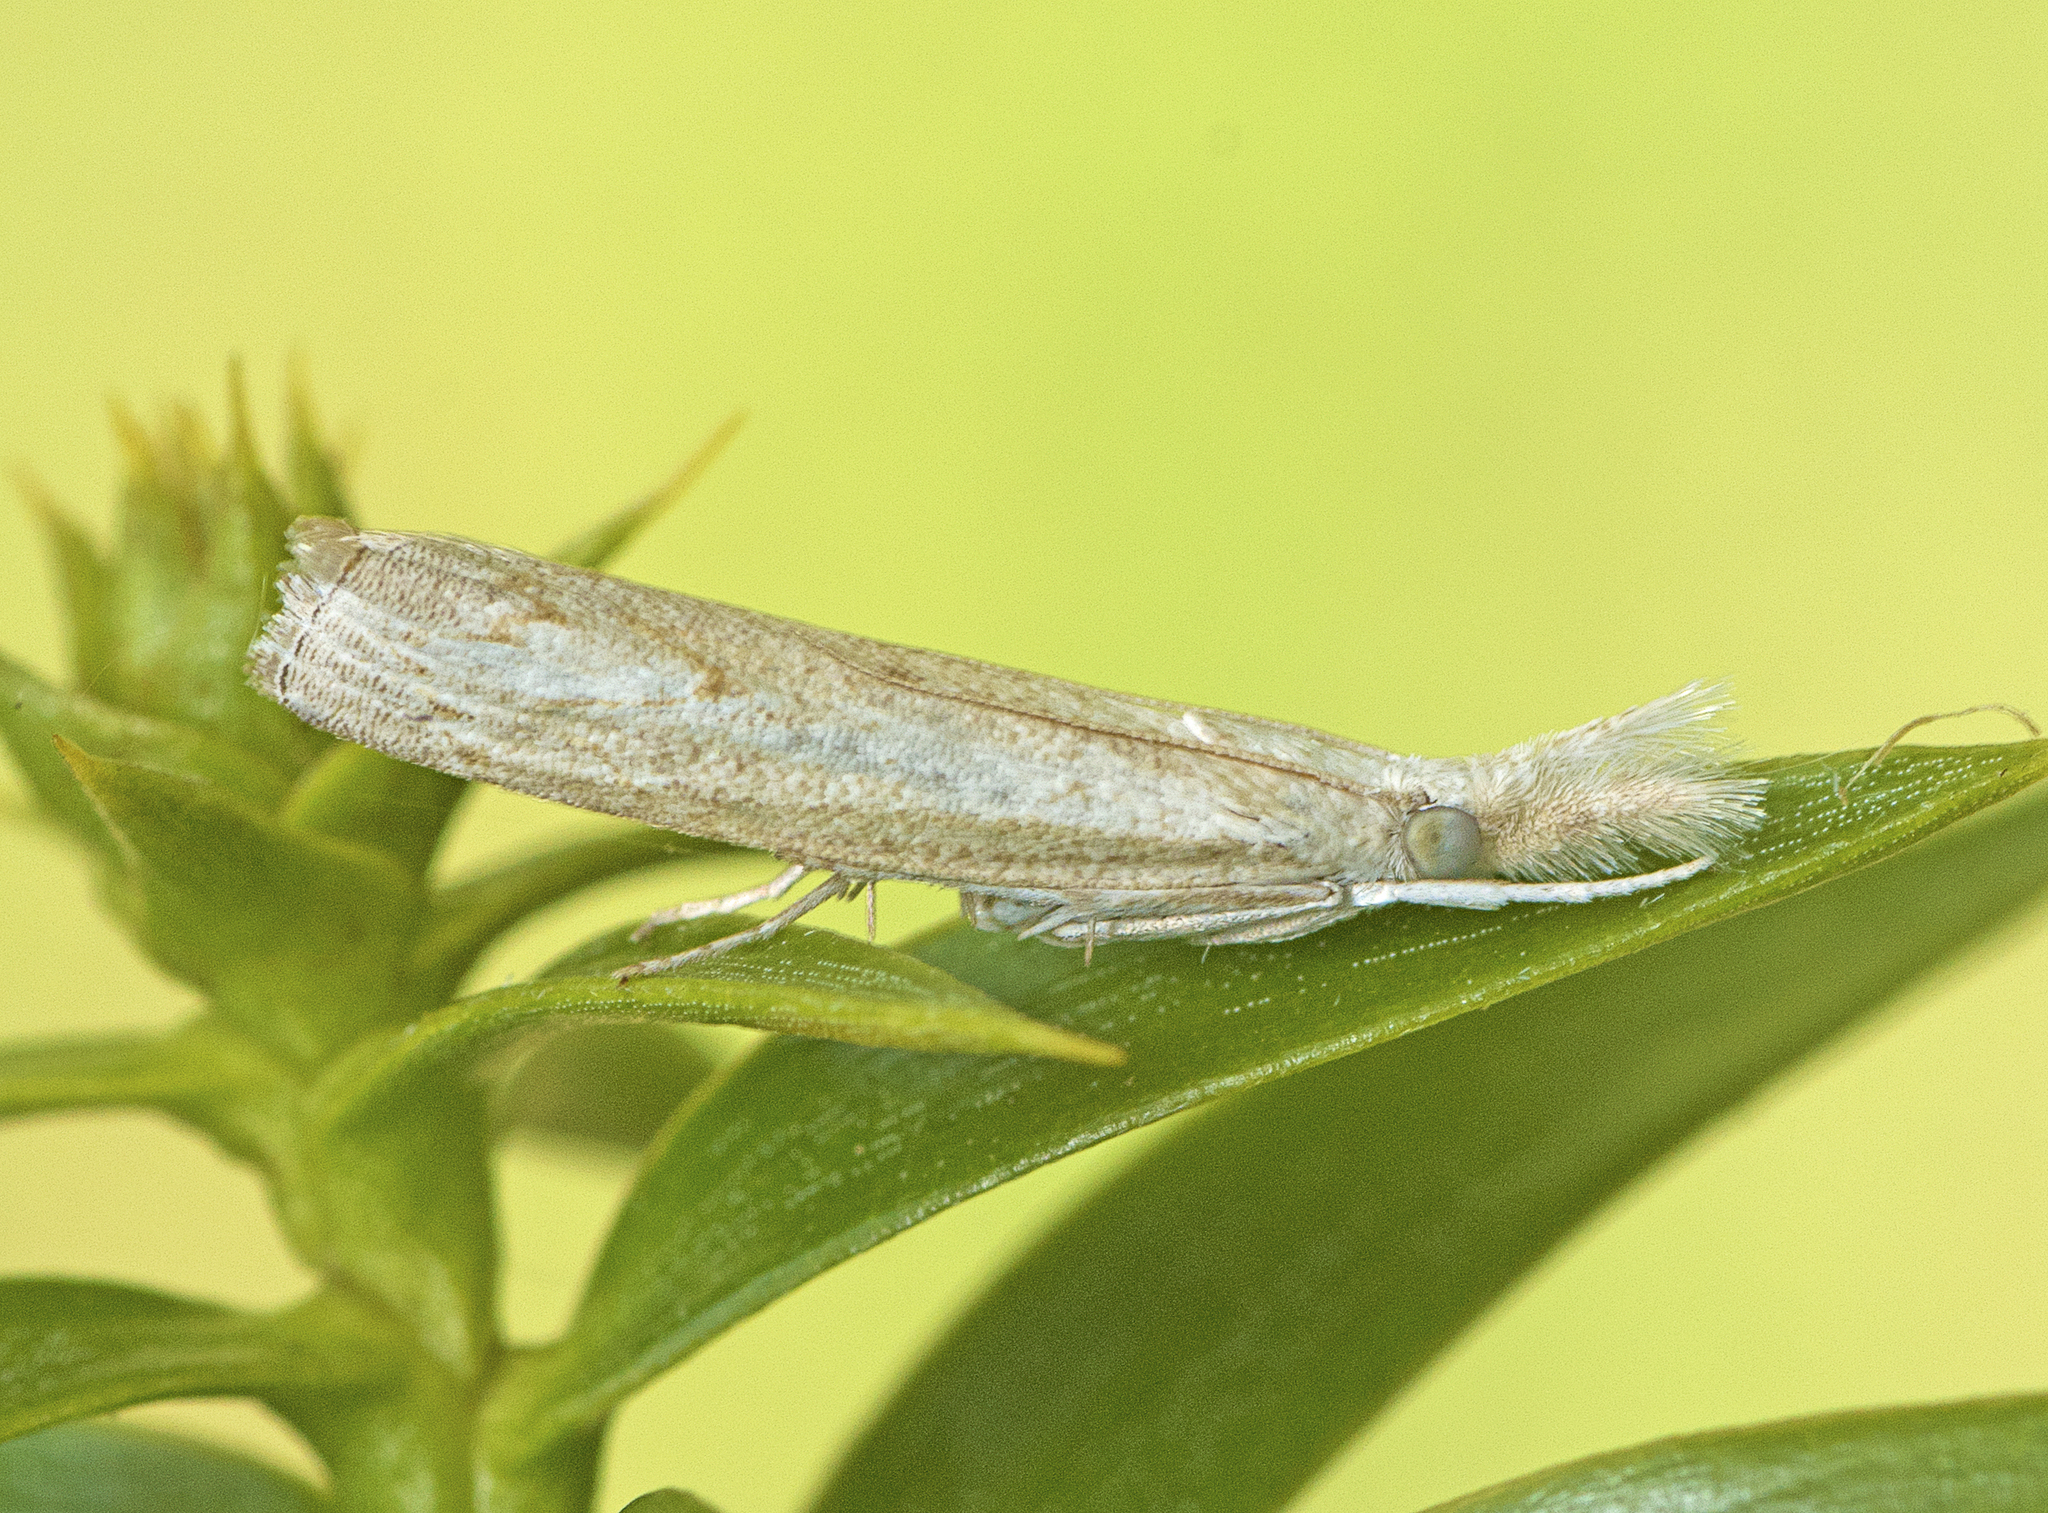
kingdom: Animalia
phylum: Arthropoda
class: Insecta
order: Lepidoptera
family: Crambidae
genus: Culladia
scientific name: Culladia cuneiferellus
